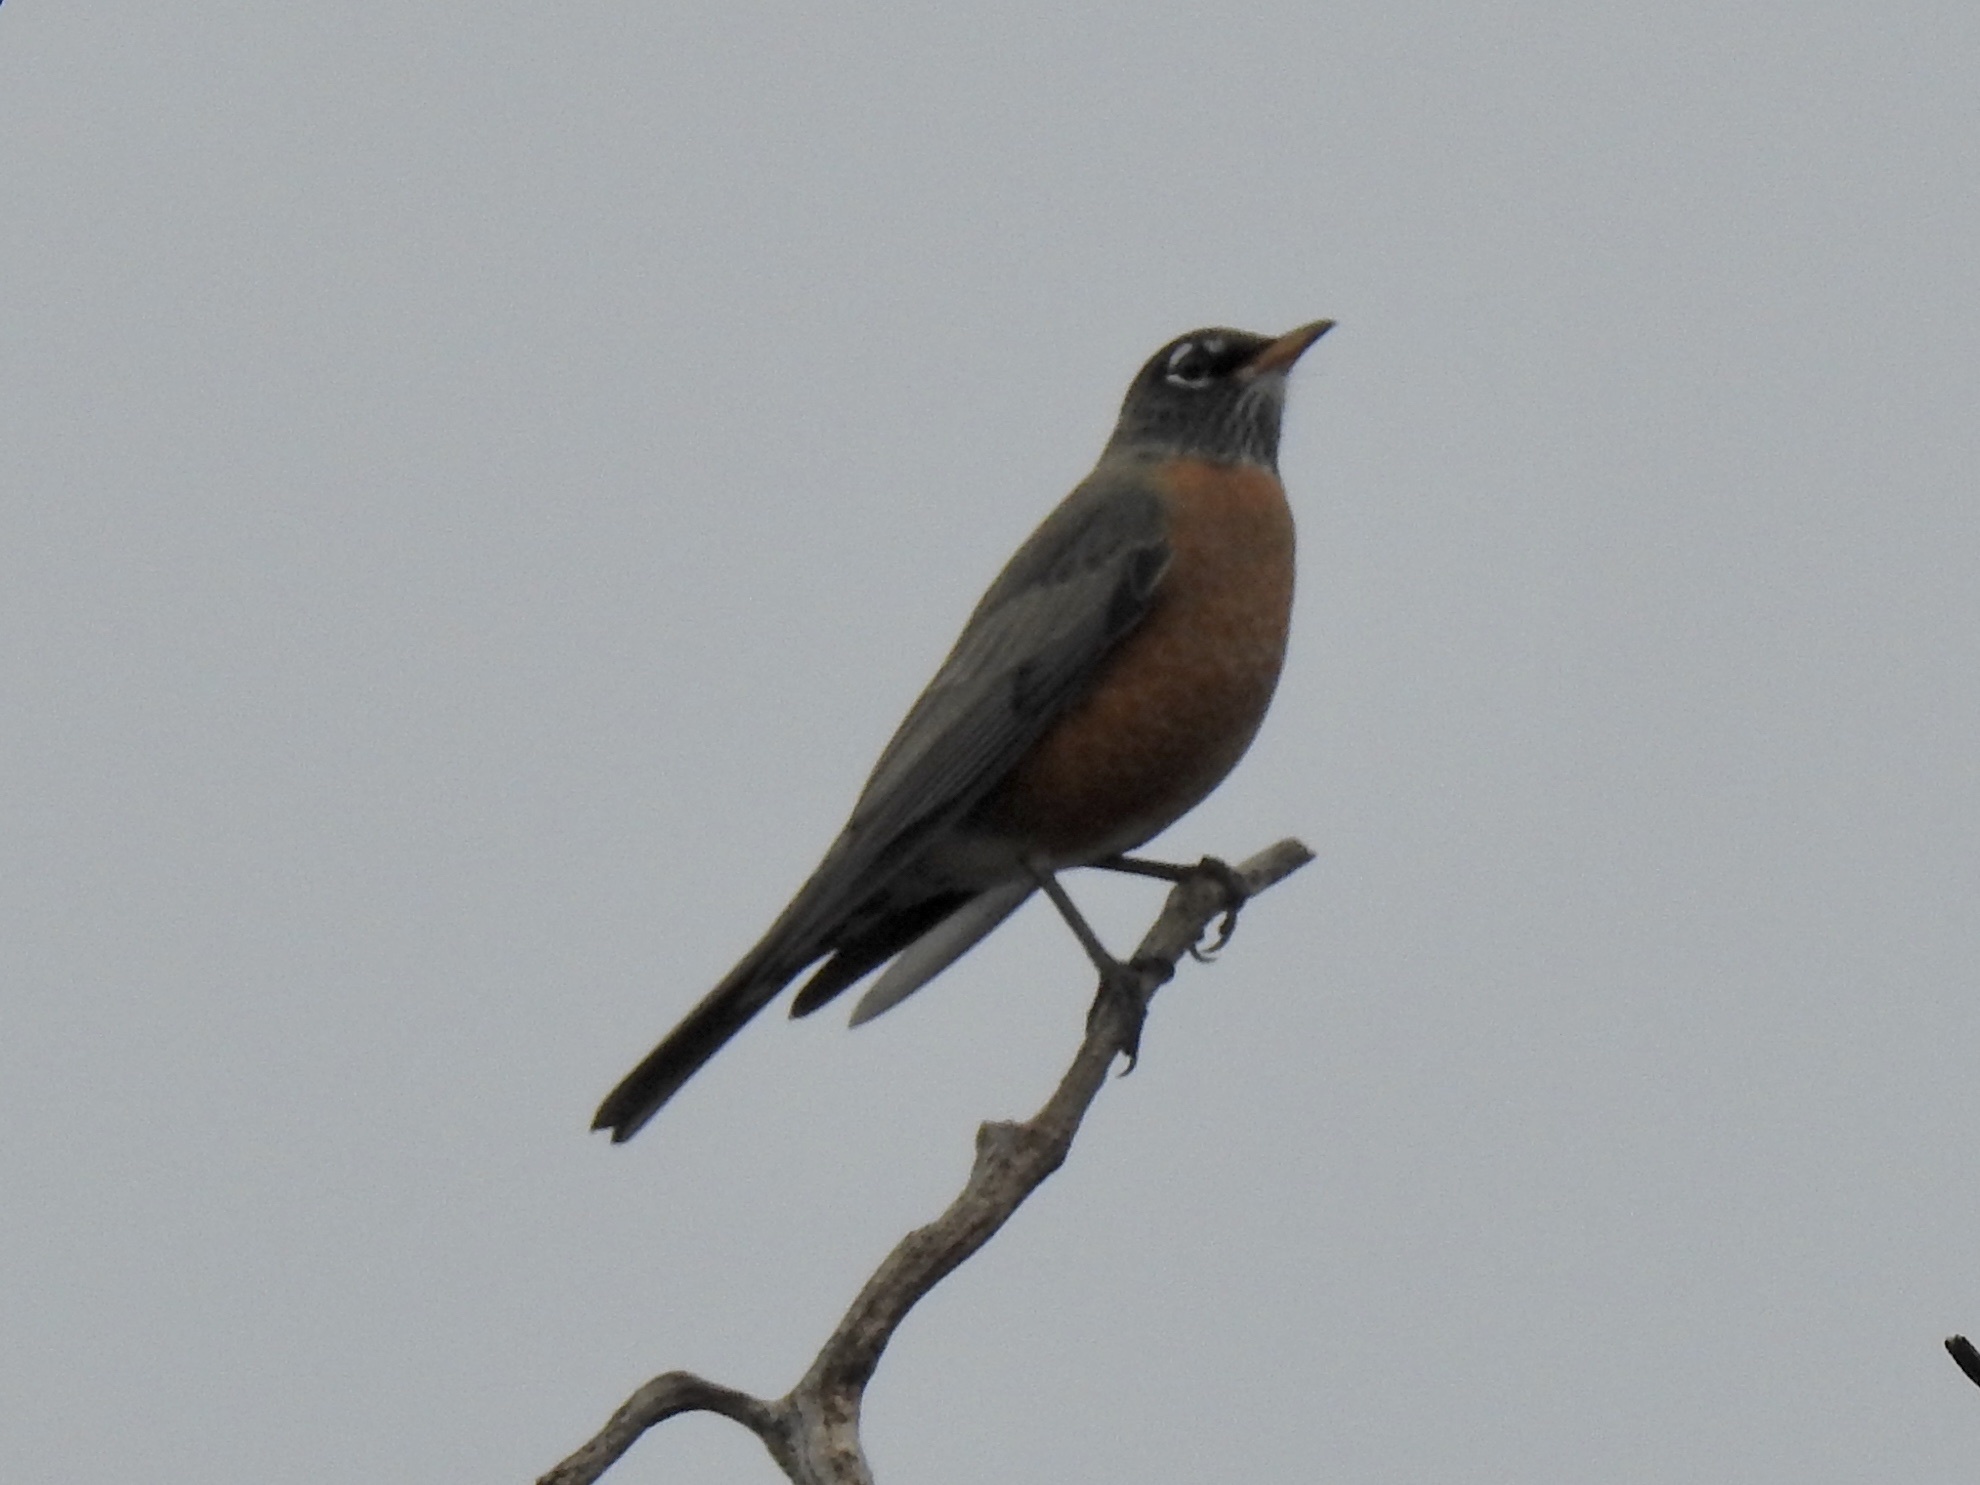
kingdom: Animalia
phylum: Chordata
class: Aves
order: Passeriformes
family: Turdidae
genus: Turdus
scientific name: Turdus migratorius
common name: American robin
